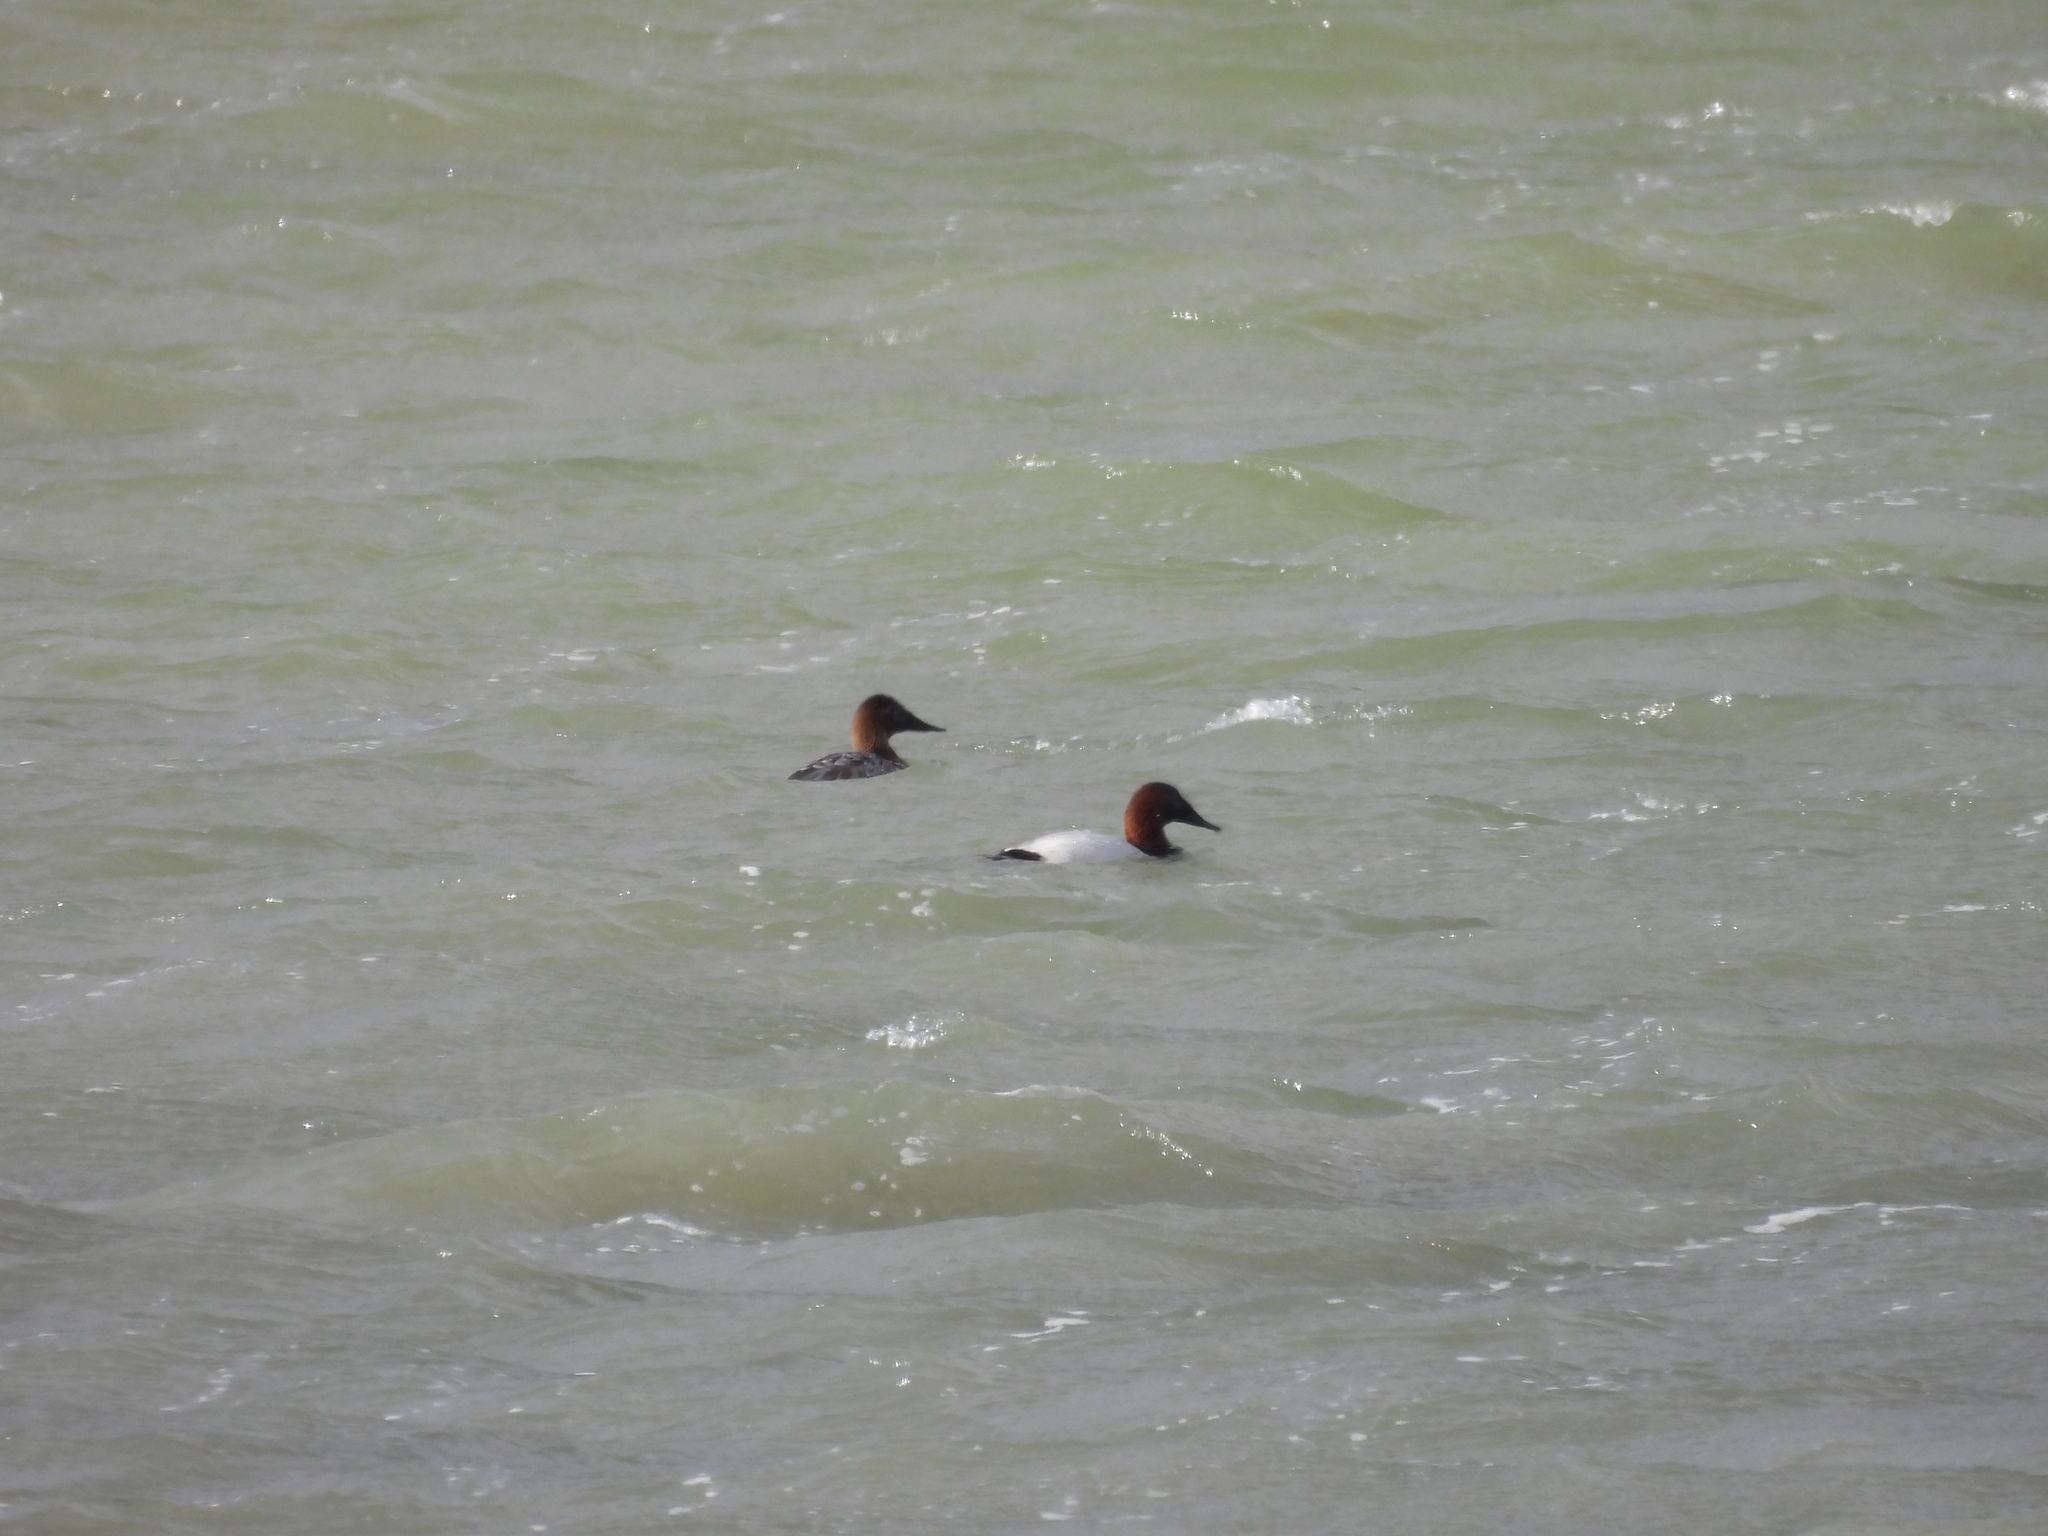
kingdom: Animalia
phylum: Chordata
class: Aves
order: Anseriformes
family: Anatidae
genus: Aythya
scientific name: Aythya valisineria
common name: Canvasback
